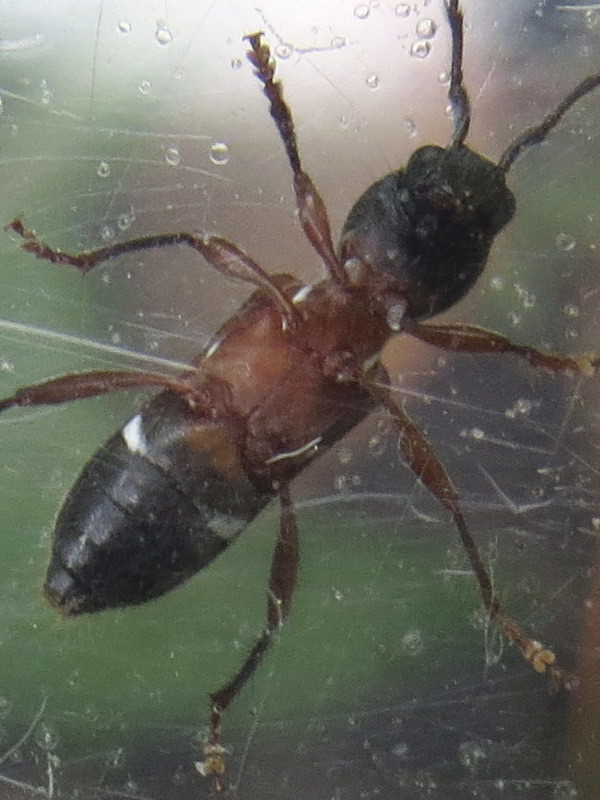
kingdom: Animalia
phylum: Arthropoda
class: Insecta
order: Coleoptera
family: Cerambycidae
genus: Cyrtophorus
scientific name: Cyrtophorus verrucosus
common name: Ant-like longhorn beetle
